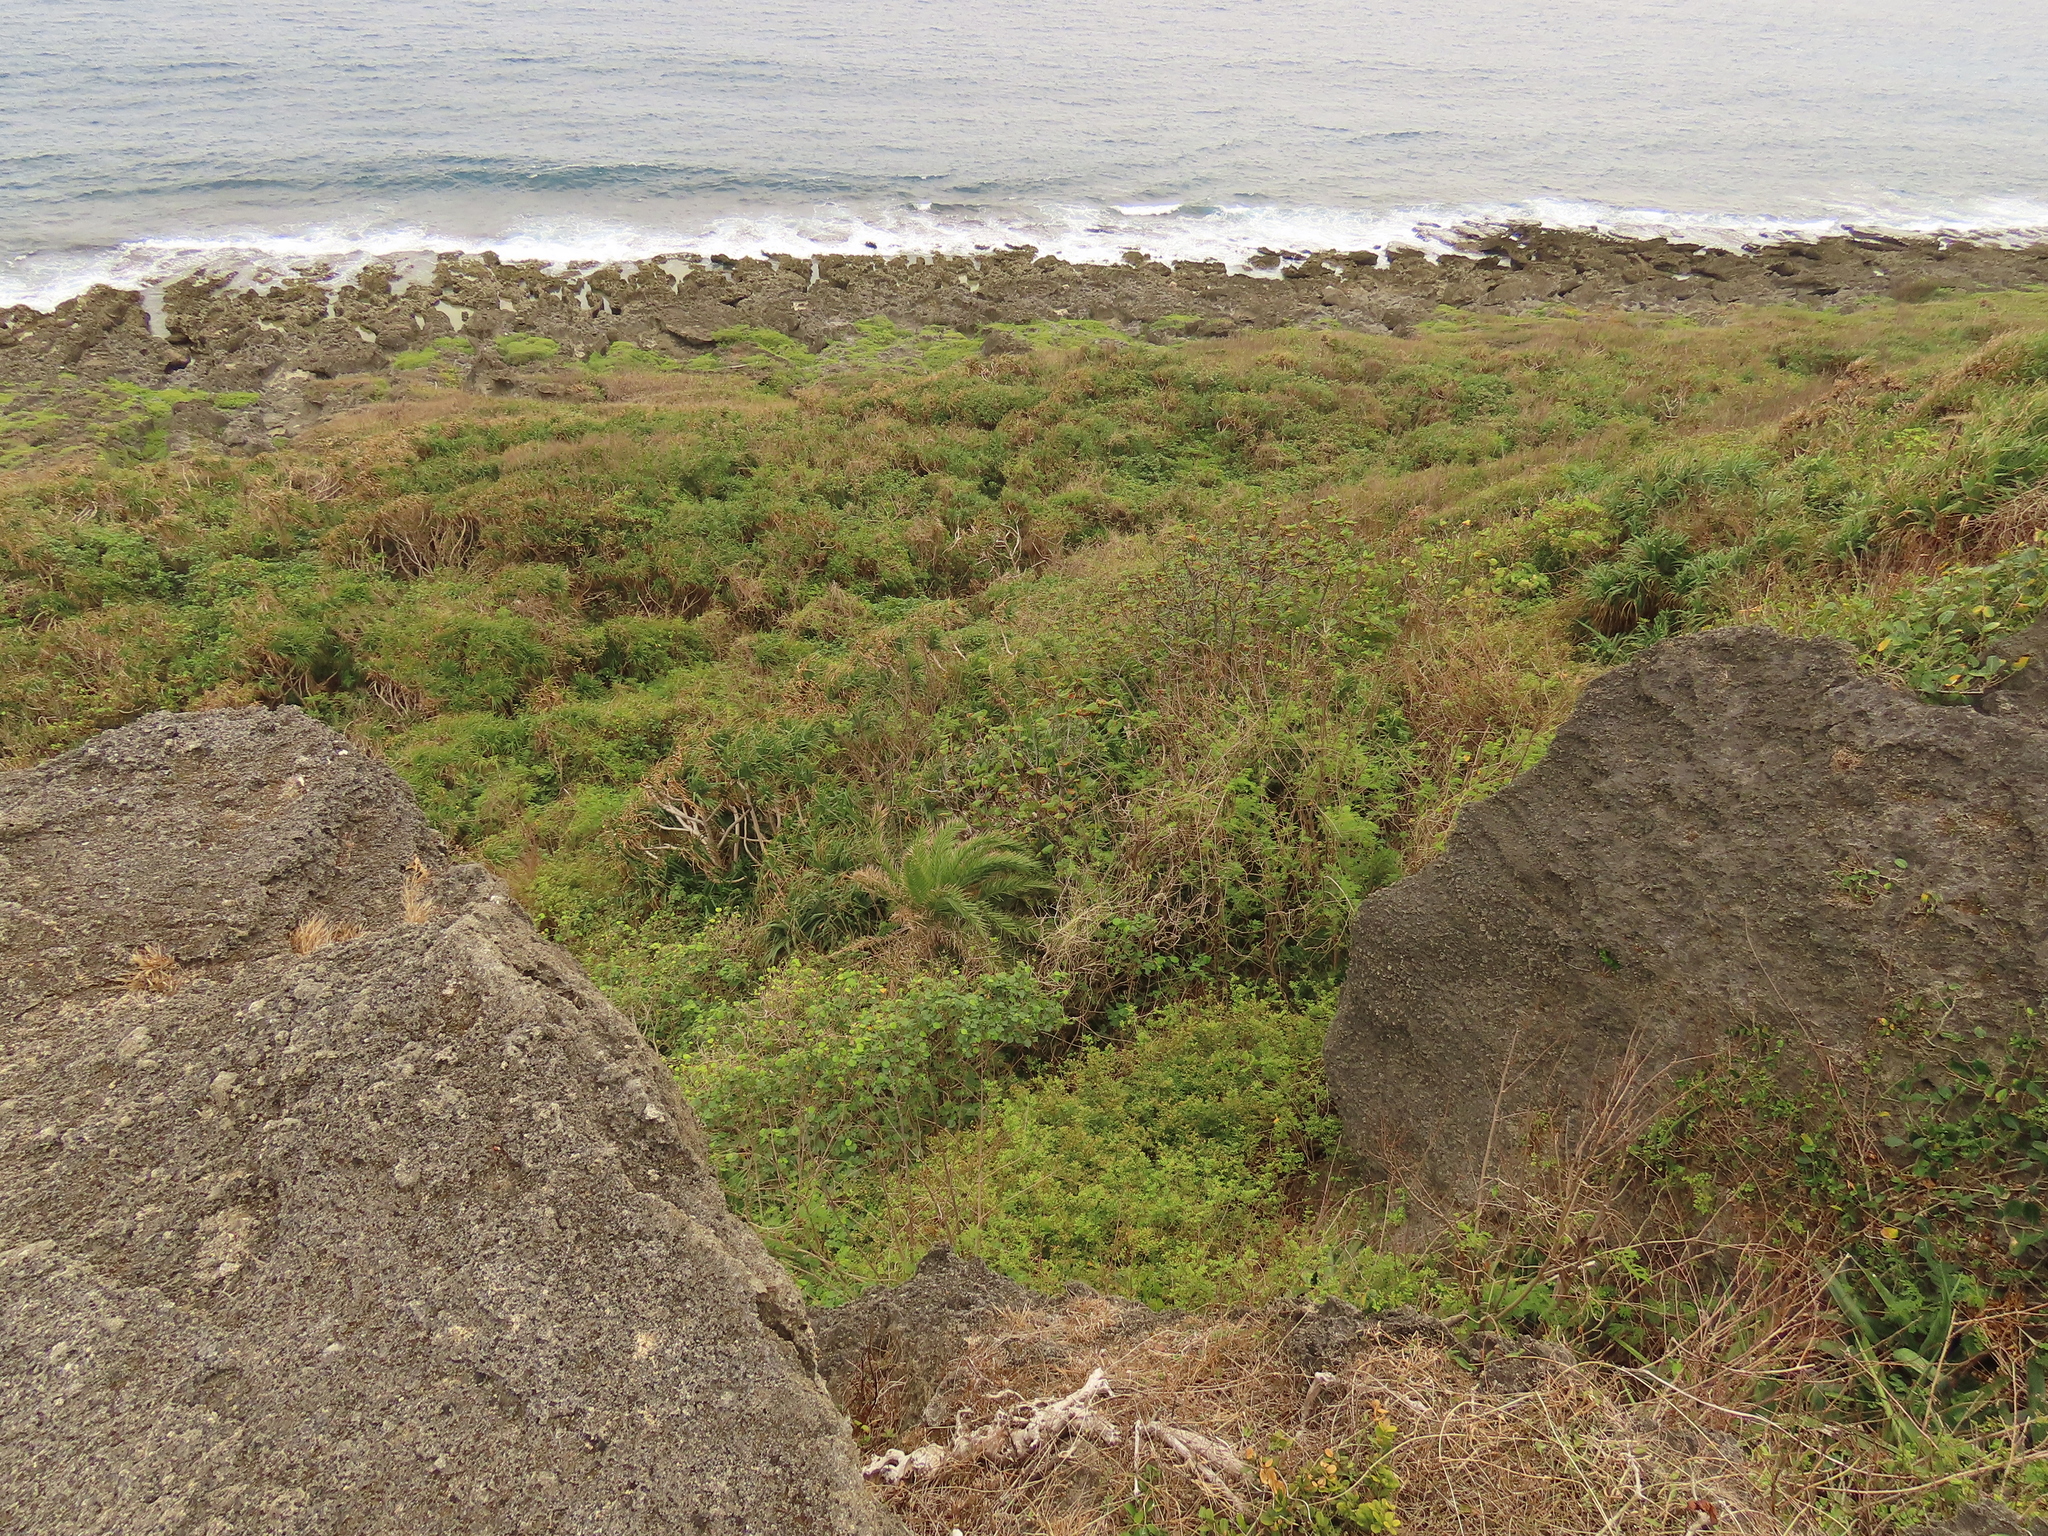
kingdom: Plantae
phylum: Tracheophyta
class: Liliopsida
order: Arecales
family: Arecaceae
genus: Phoenix
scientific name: Phoenix loureiroi
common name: Loureiro's palm
